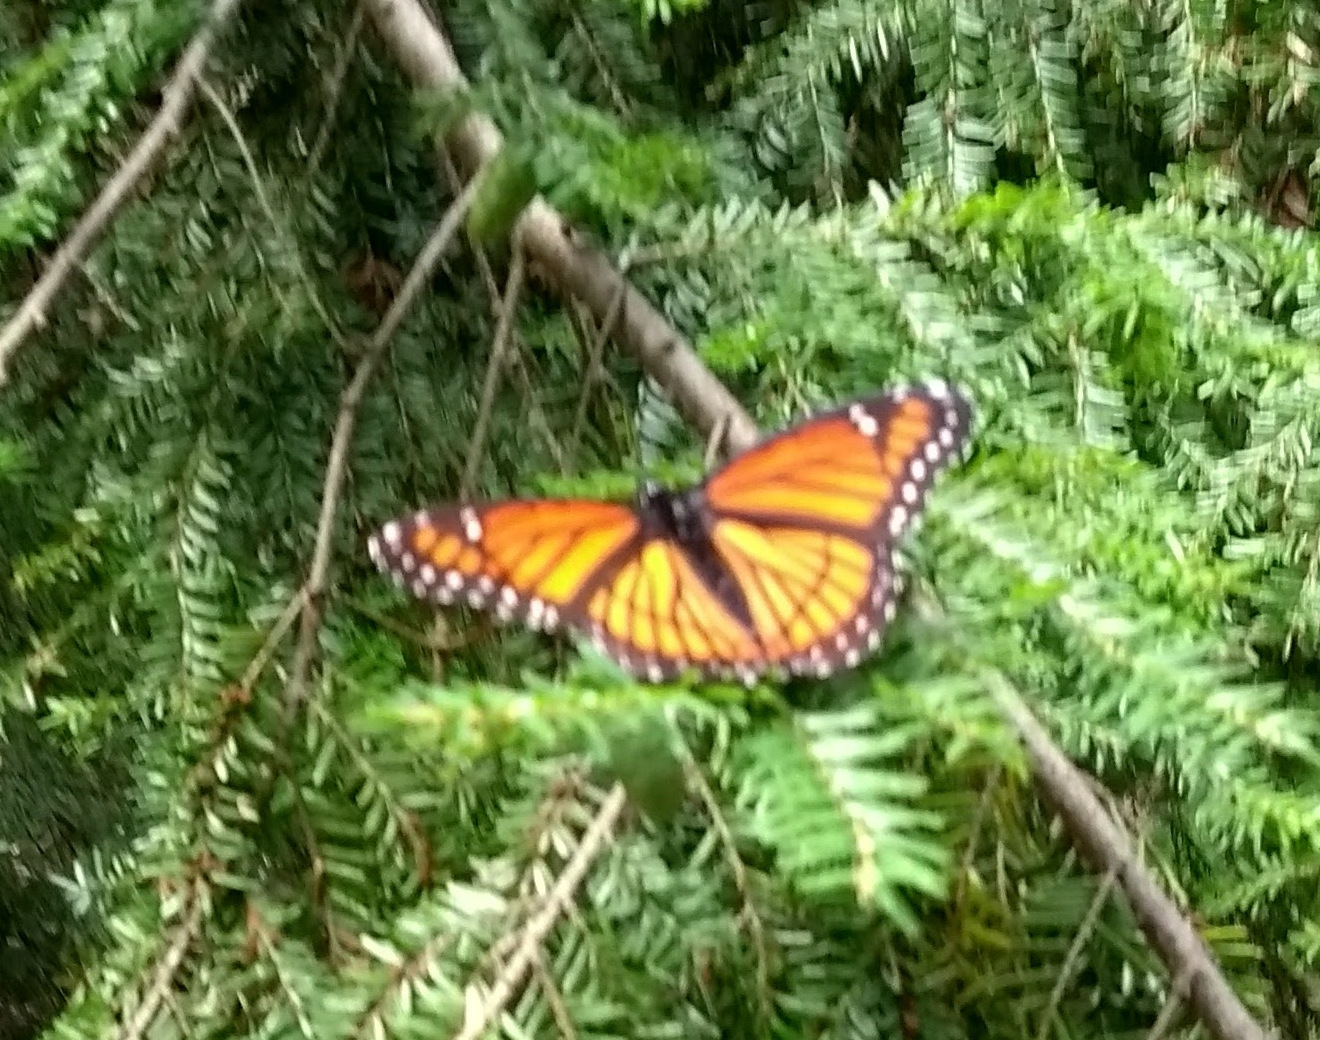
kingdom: Animalia
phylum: Arthropoda
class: Insecta
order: Lepidoptera
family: Nymphalidae
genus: Limenitis
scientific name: Limenitis archippus
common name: Viceroy
